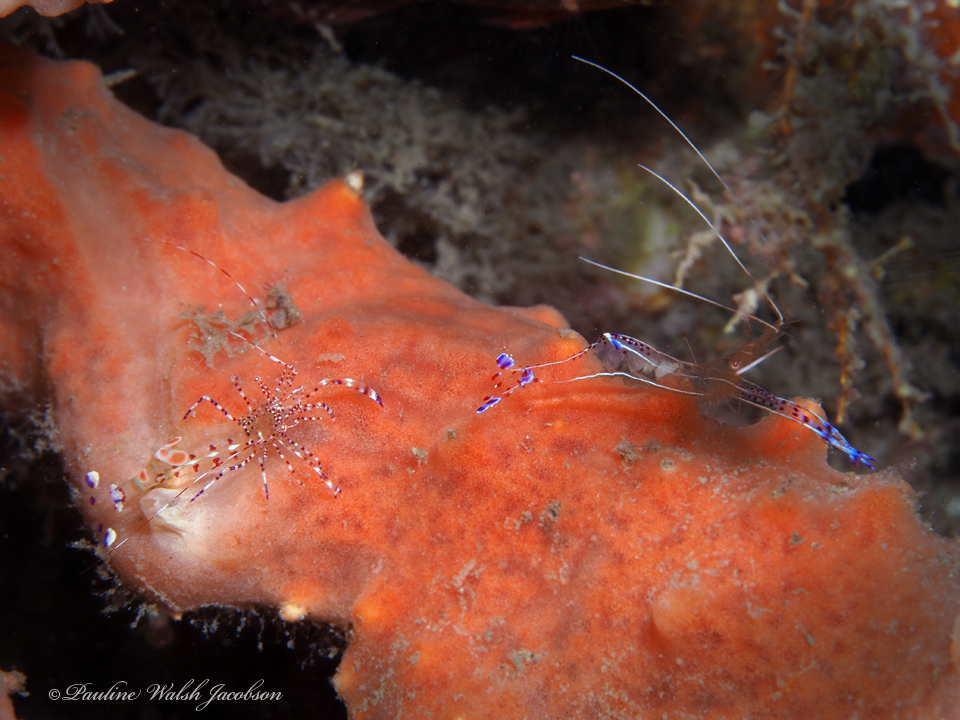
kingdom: Animalia
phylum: Arthropoda
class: Malacostraca
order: Decapoda
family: Palaemonidae
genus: Periclimenes
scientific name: Periclimenes yucatanicus
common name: Spotted cleaning shrimp
